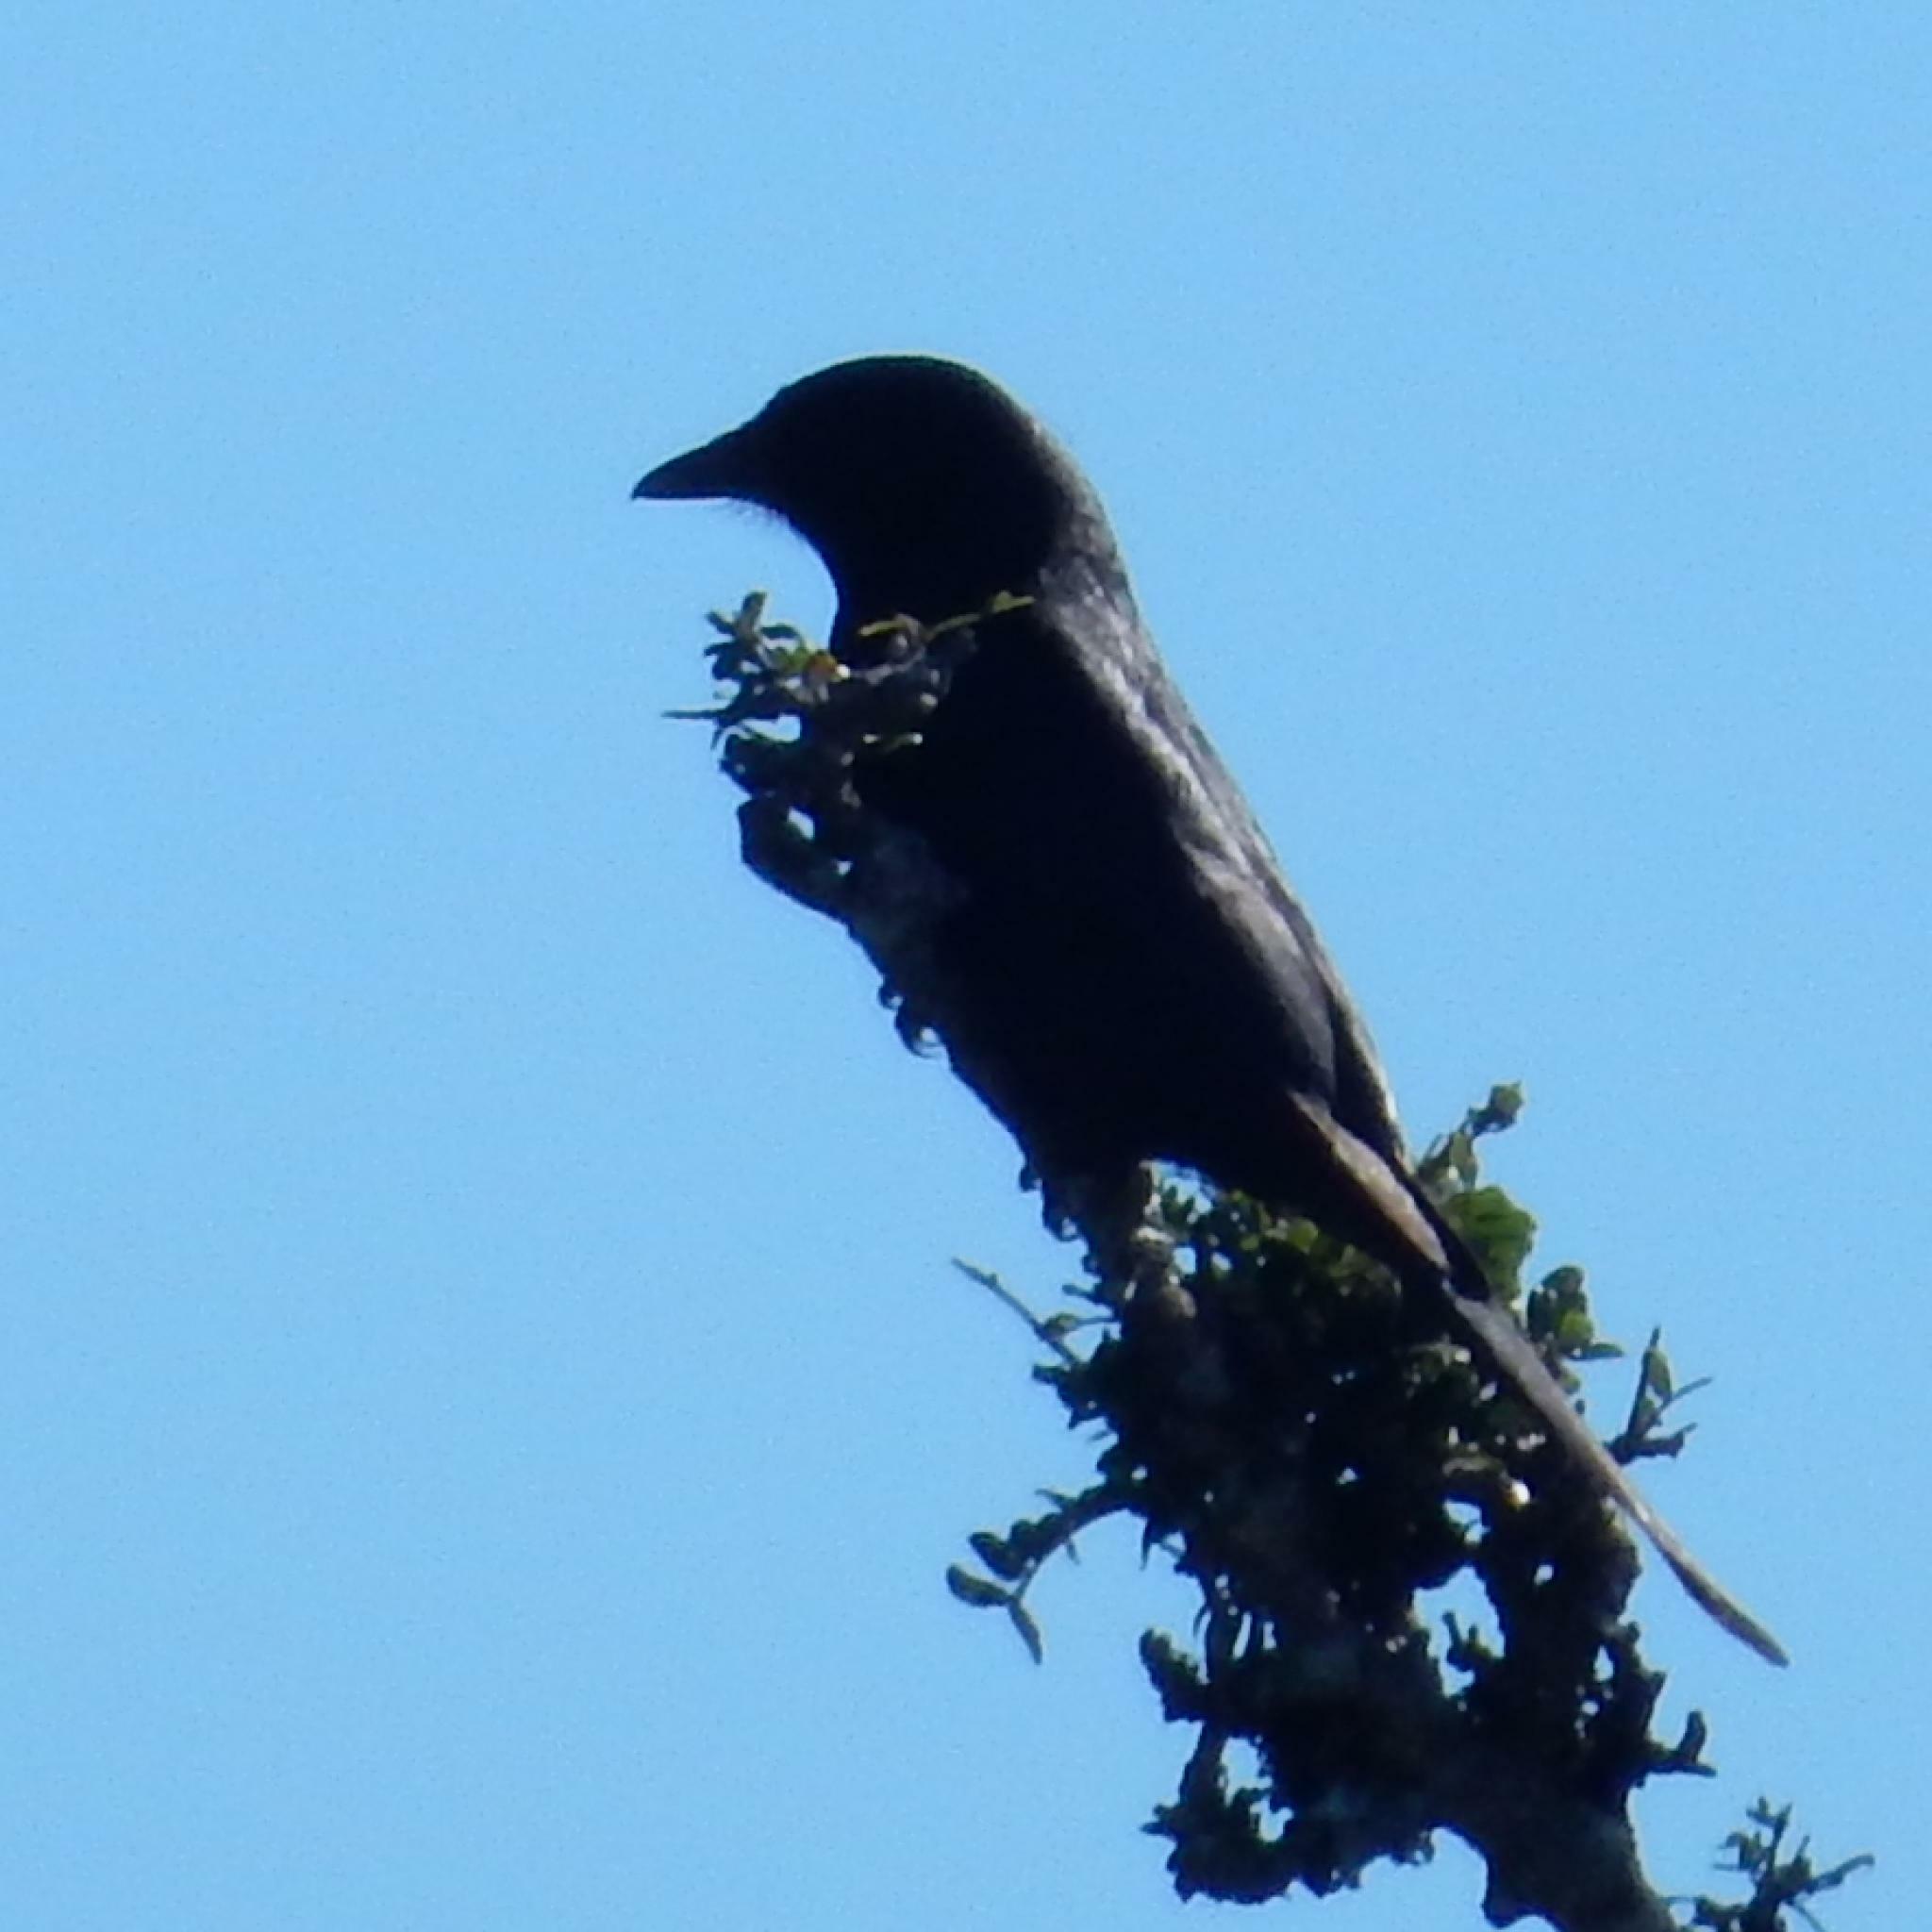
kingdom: Animalia
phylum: Chordata
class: Aves
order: Passeriformes
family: Dicruridae
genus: Dicrurus
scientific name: Dicrurus adsimilis
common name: Fork-tailed drongo
